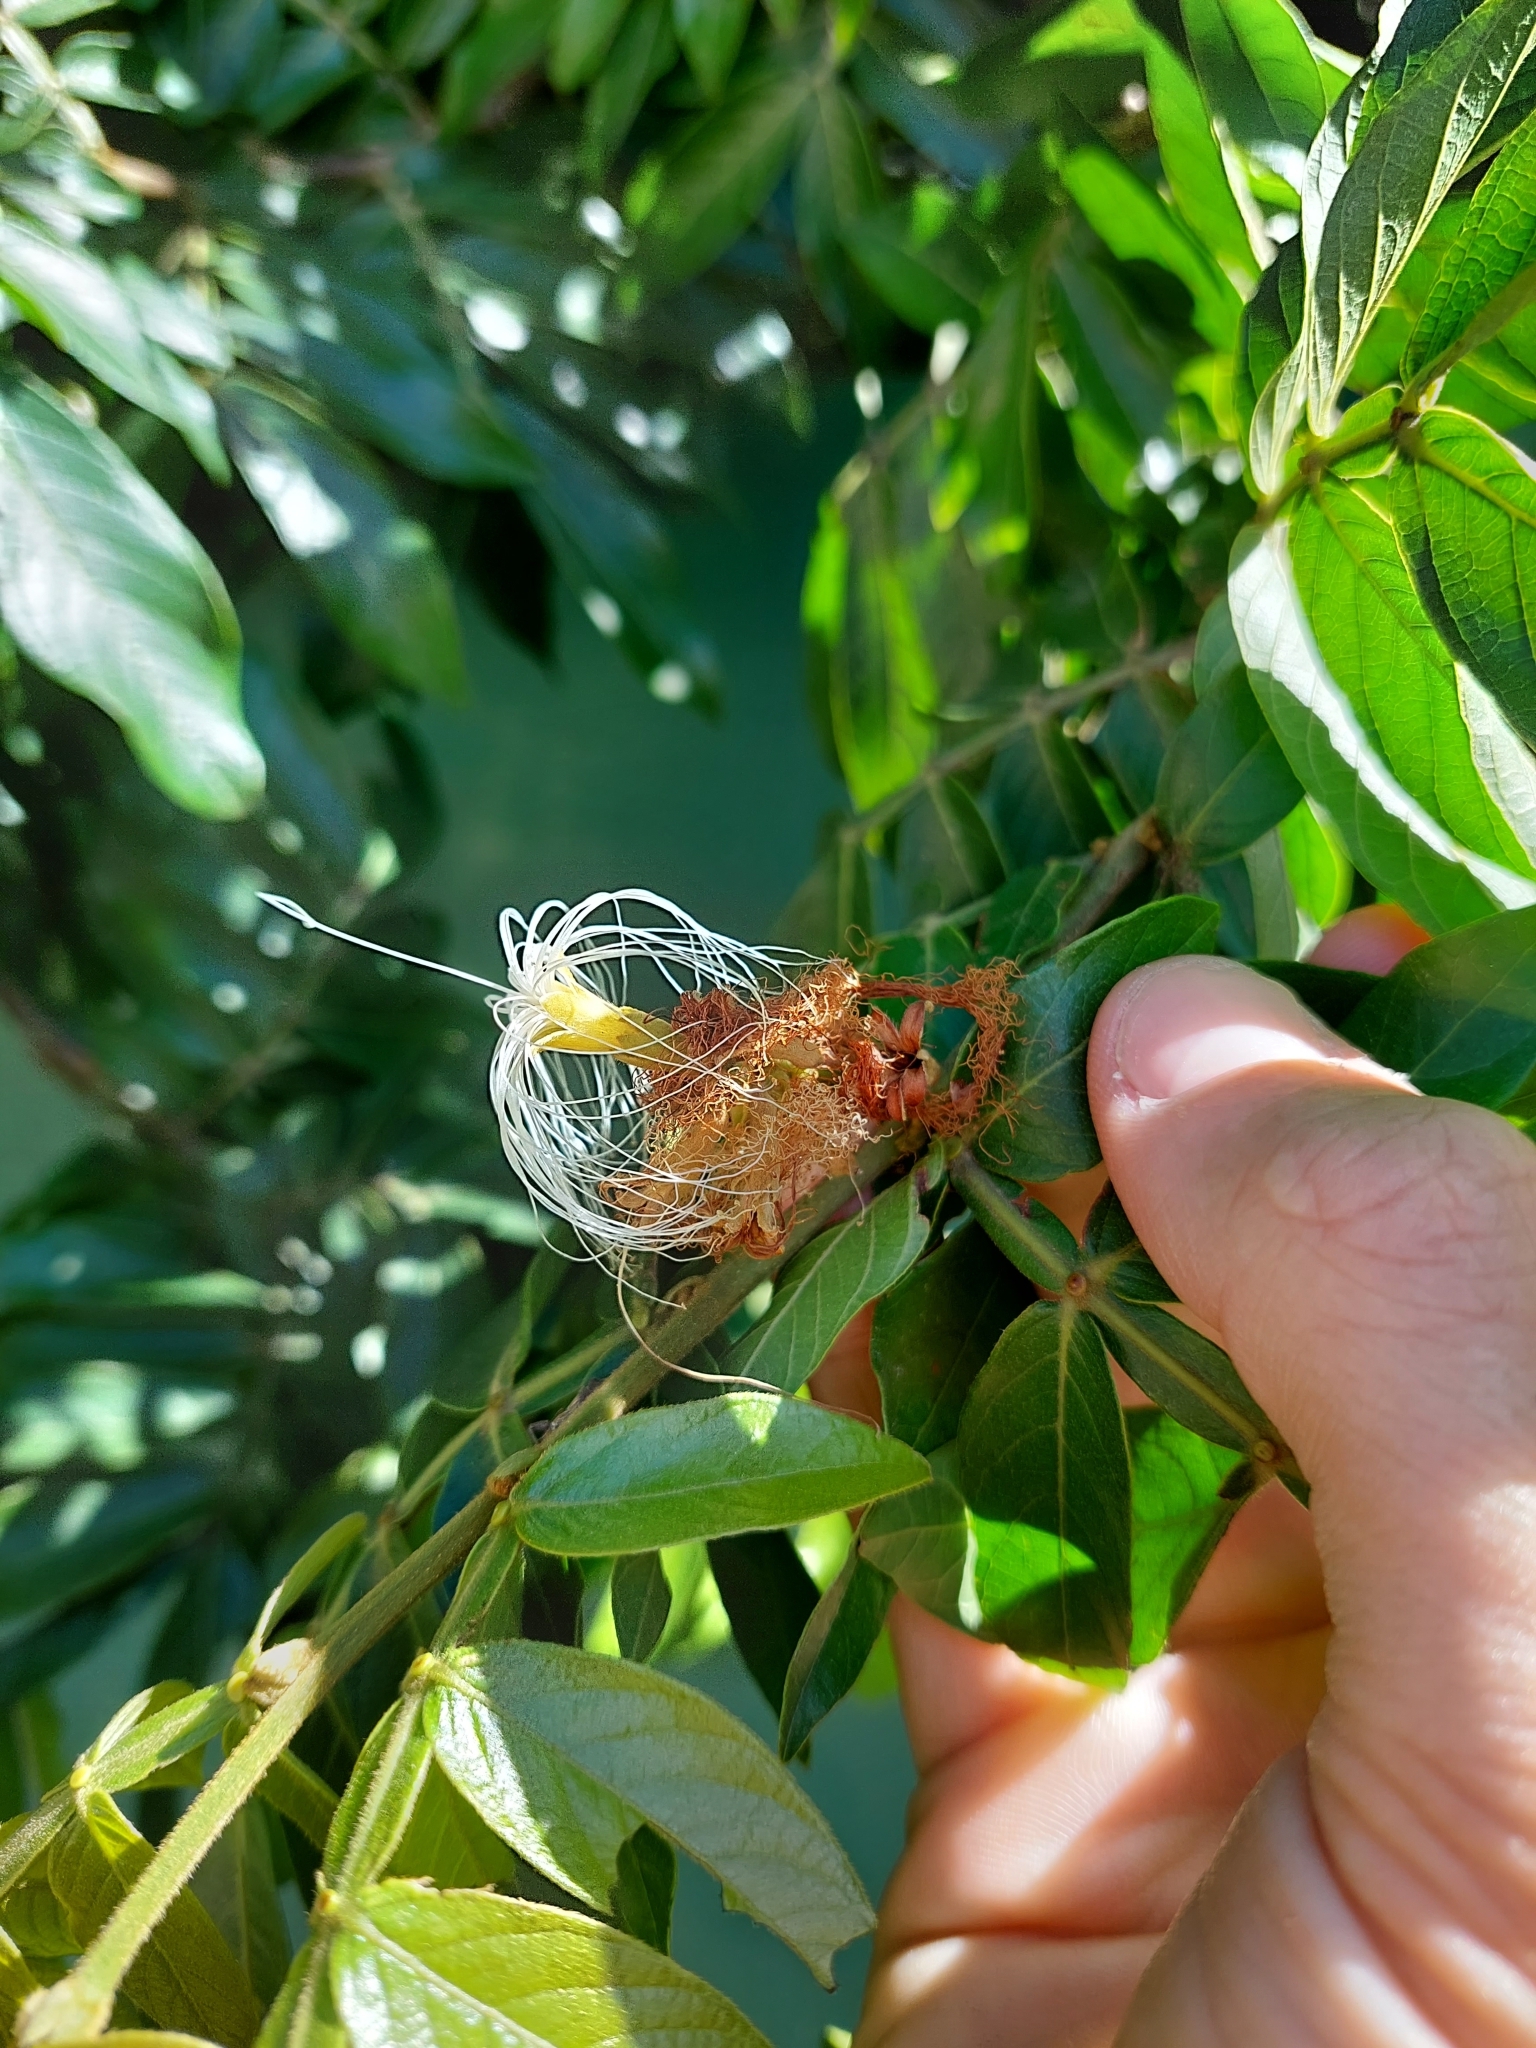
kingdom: Plantae
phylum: Tracheophyta
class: Magnoliopsida
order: Fabales
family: Fabaceae
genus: Inga
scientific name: Inga uraguensis
